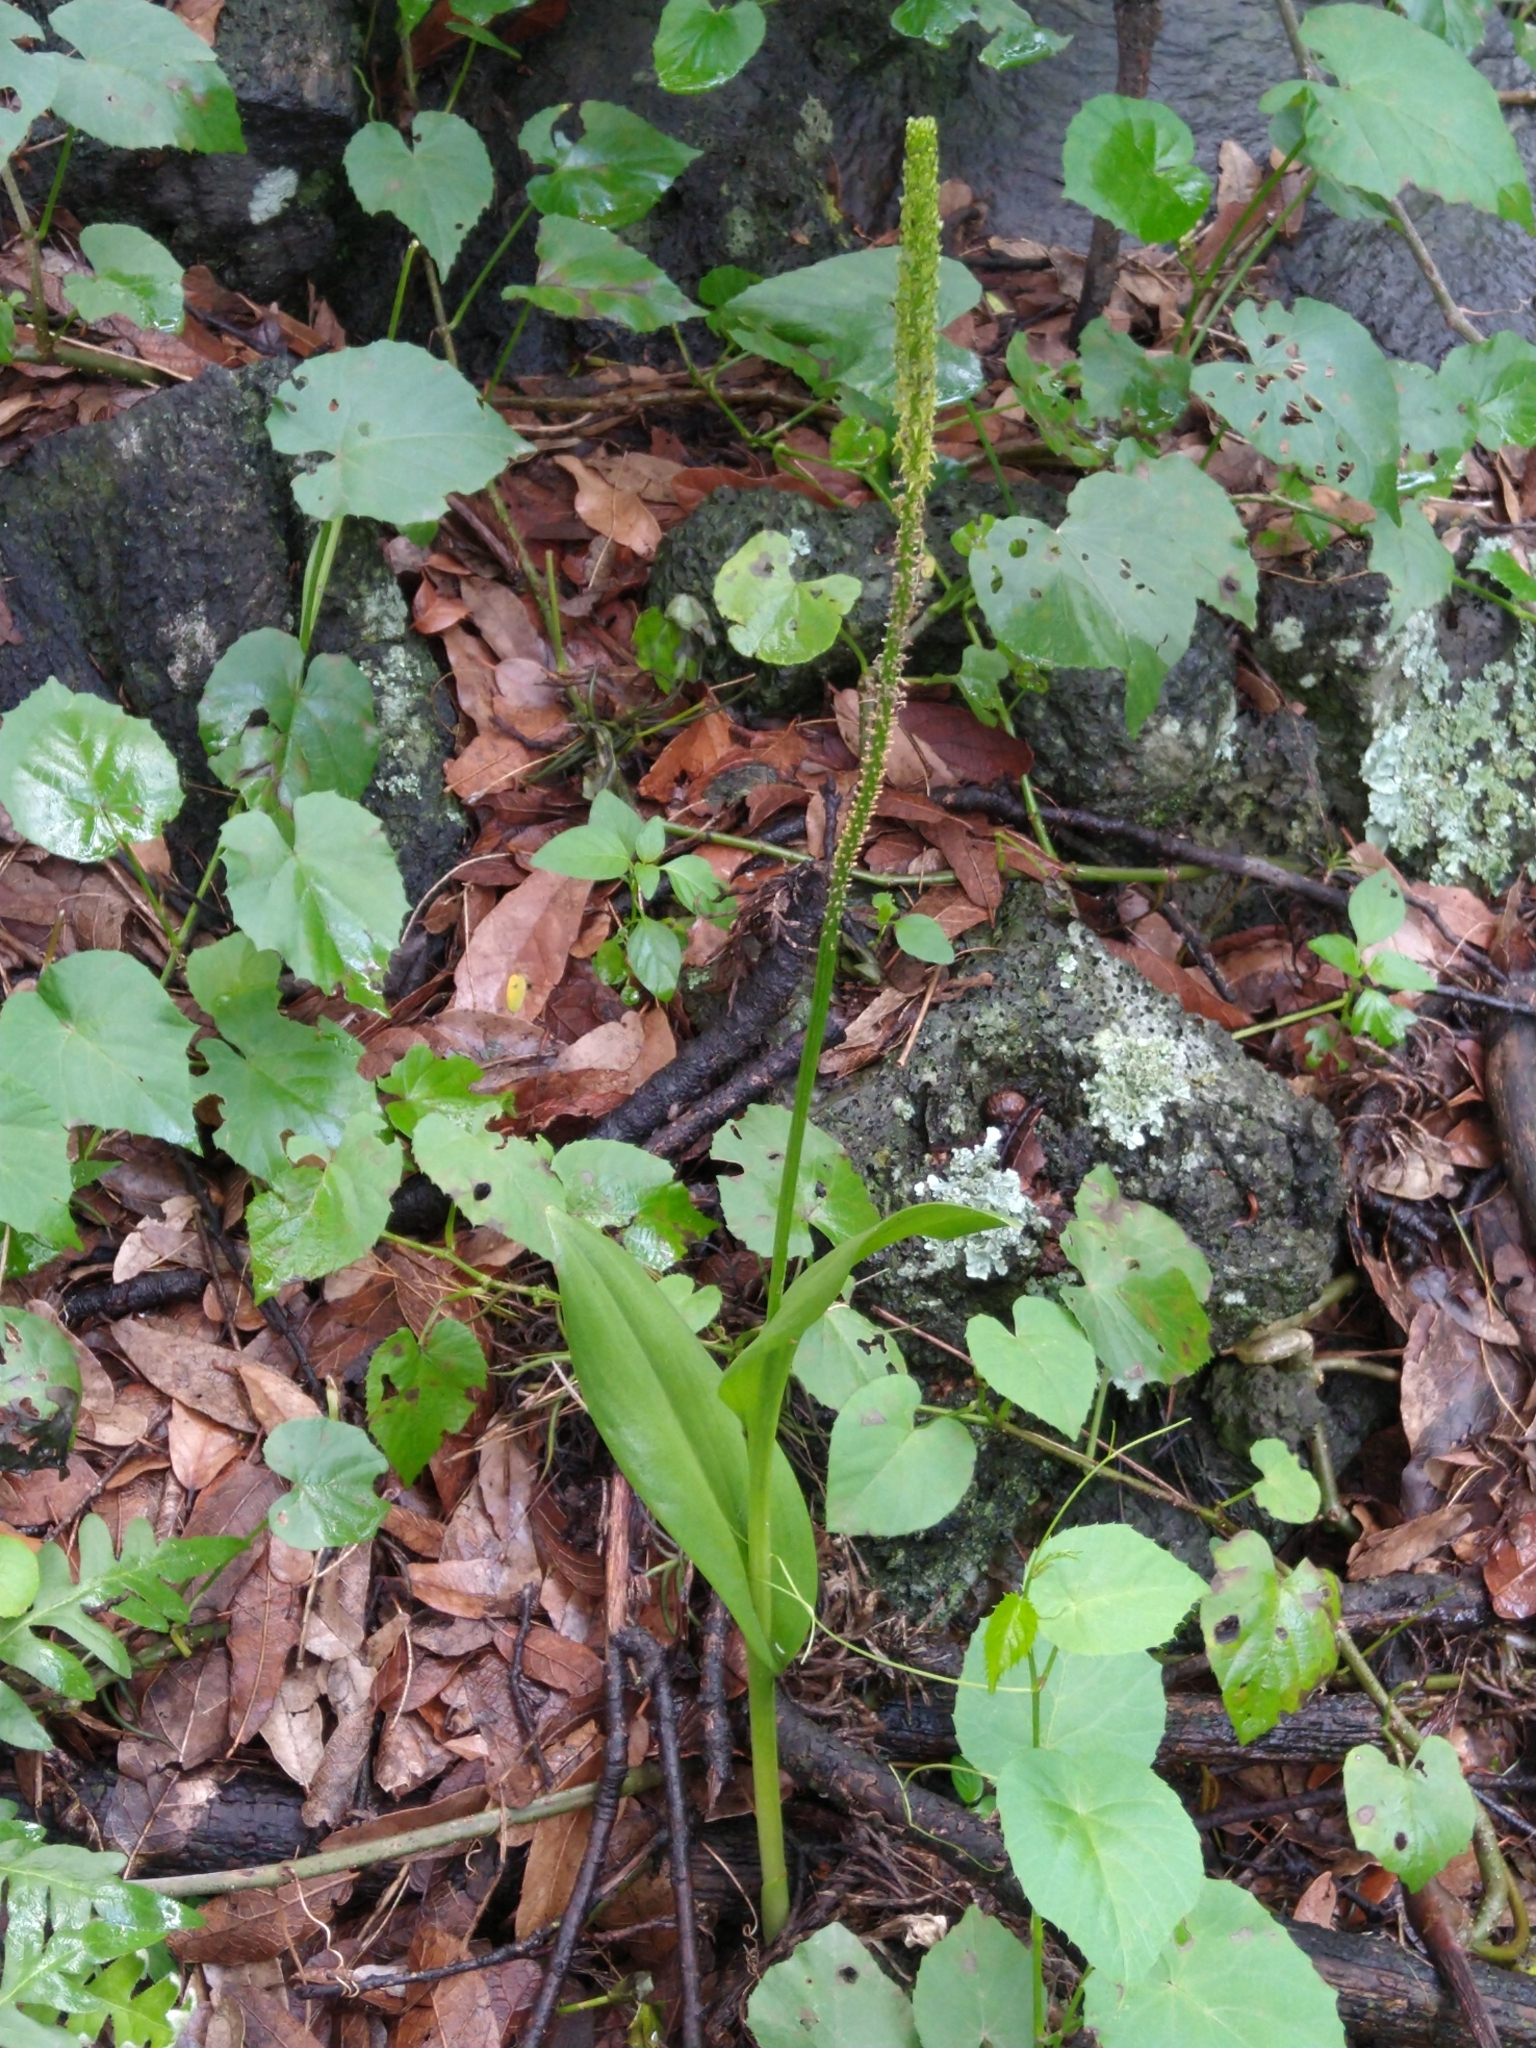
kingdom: Plantae
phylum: Tracheophyta
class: Liliopsida
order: Asparagales
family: Orchidaceae
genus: Malaxis
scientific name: Malaxis myurus
